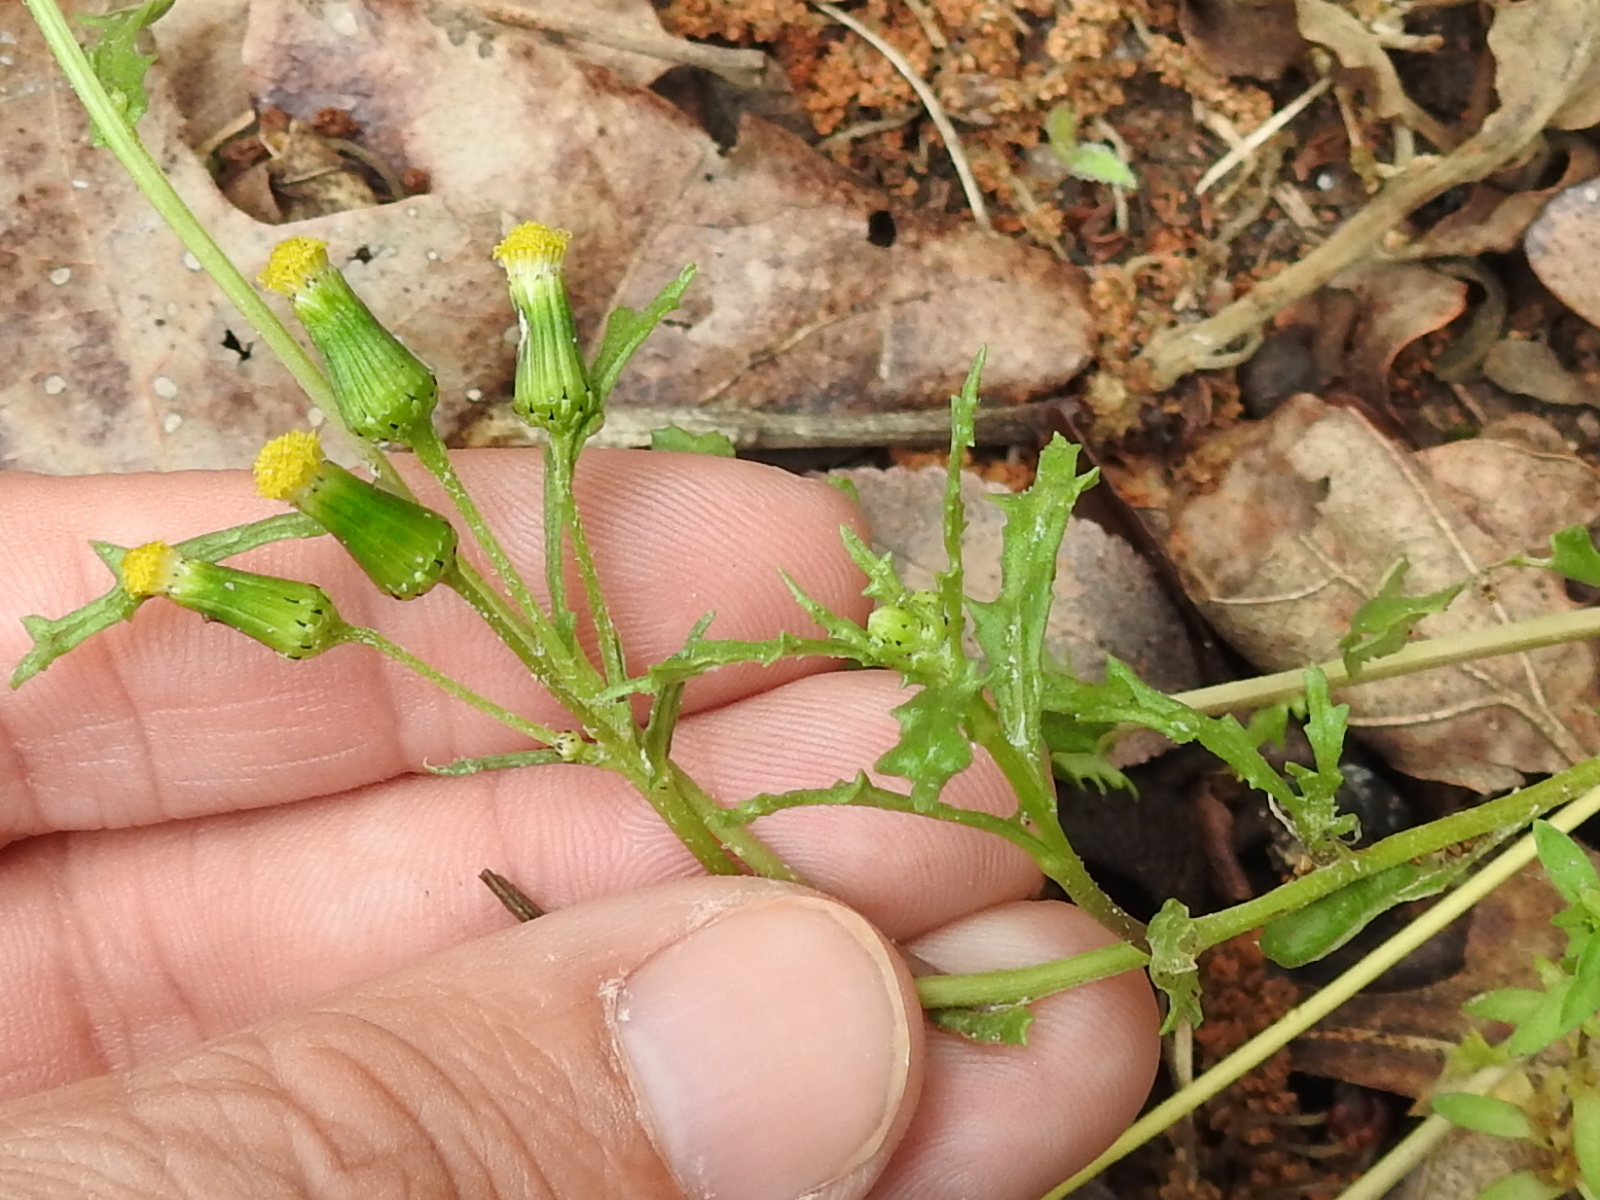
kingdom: Plantae
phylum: Tracheophyta
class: Magnoliopsida
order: Asterales
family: Asteraceae
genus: Senecio
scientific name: Senecio vulgaris
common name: Old-man-in-the-spring
